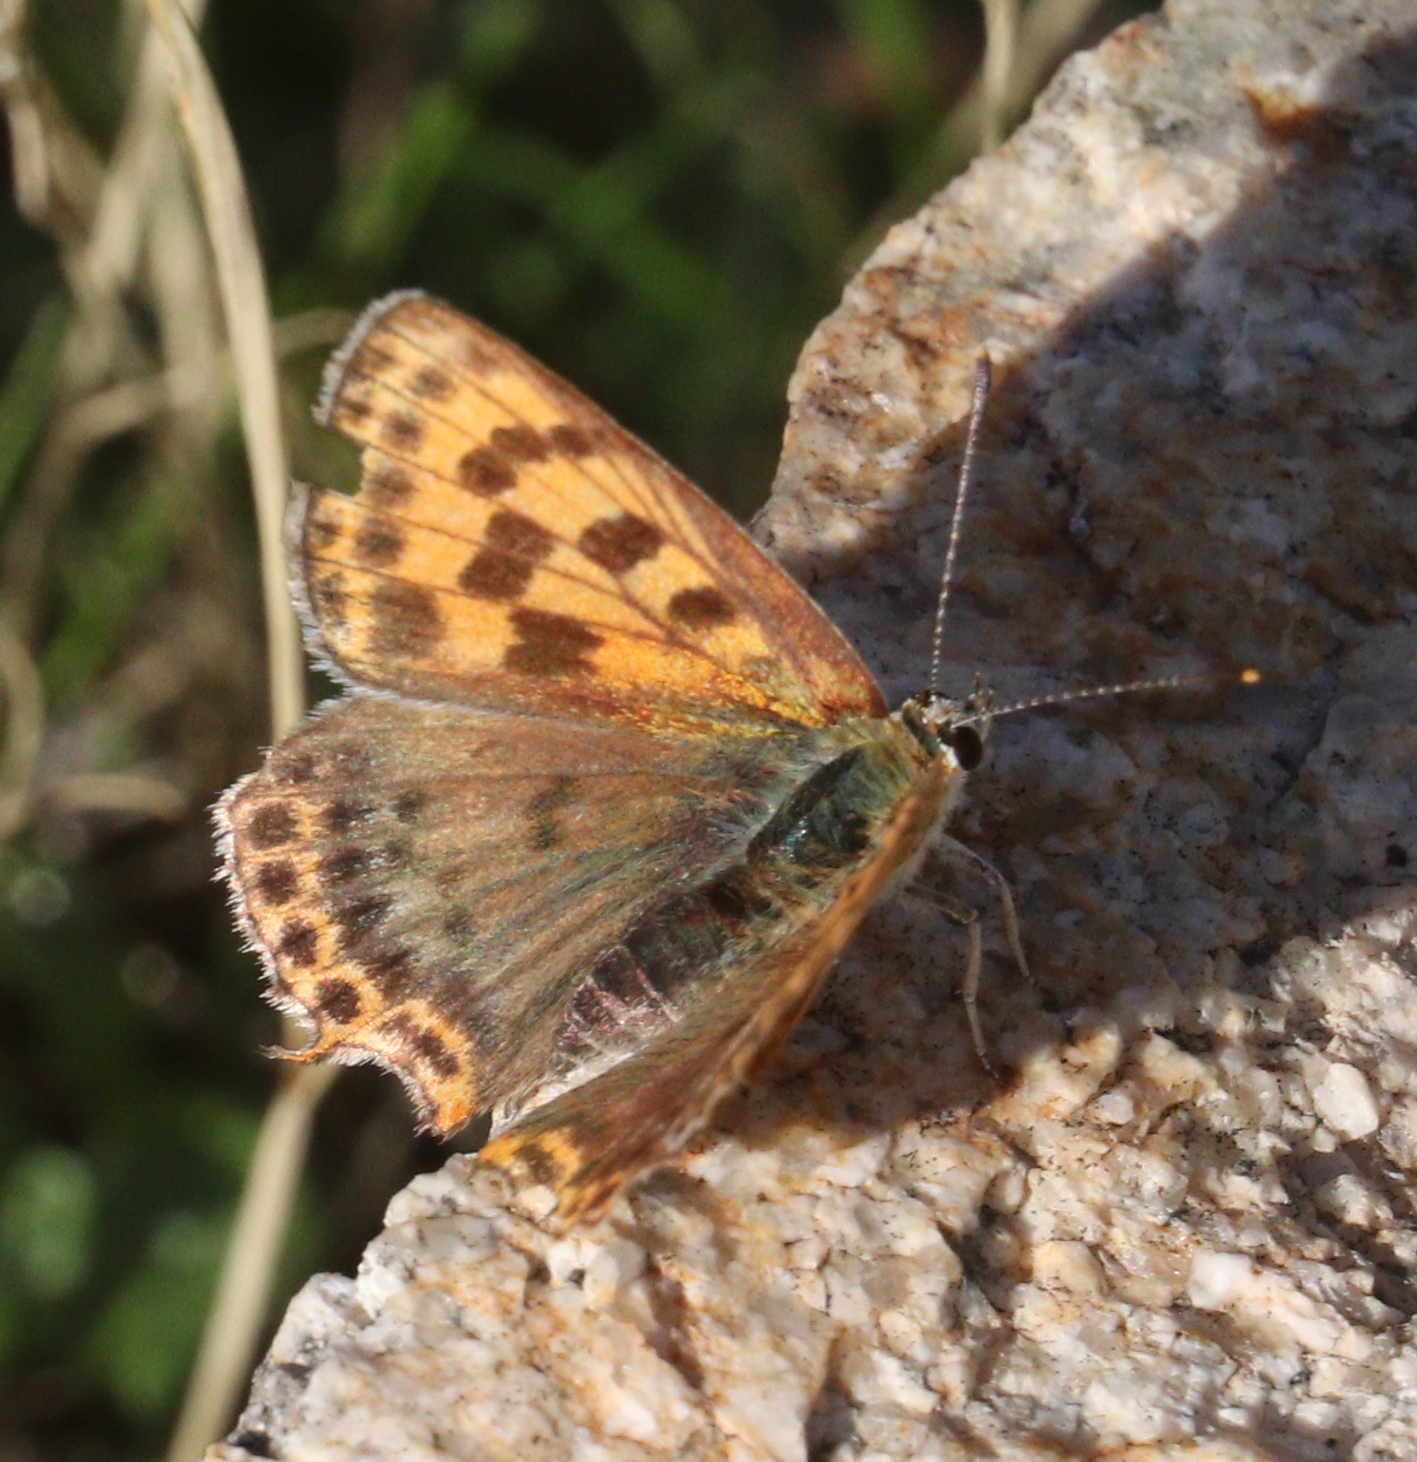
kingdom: Animalia
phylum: Arthropoda
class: Insecta
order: Lepidoptera
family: Lycaenidae
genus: Lycaena
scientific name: Lycaena bleusei
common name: Iberian sooty copper
